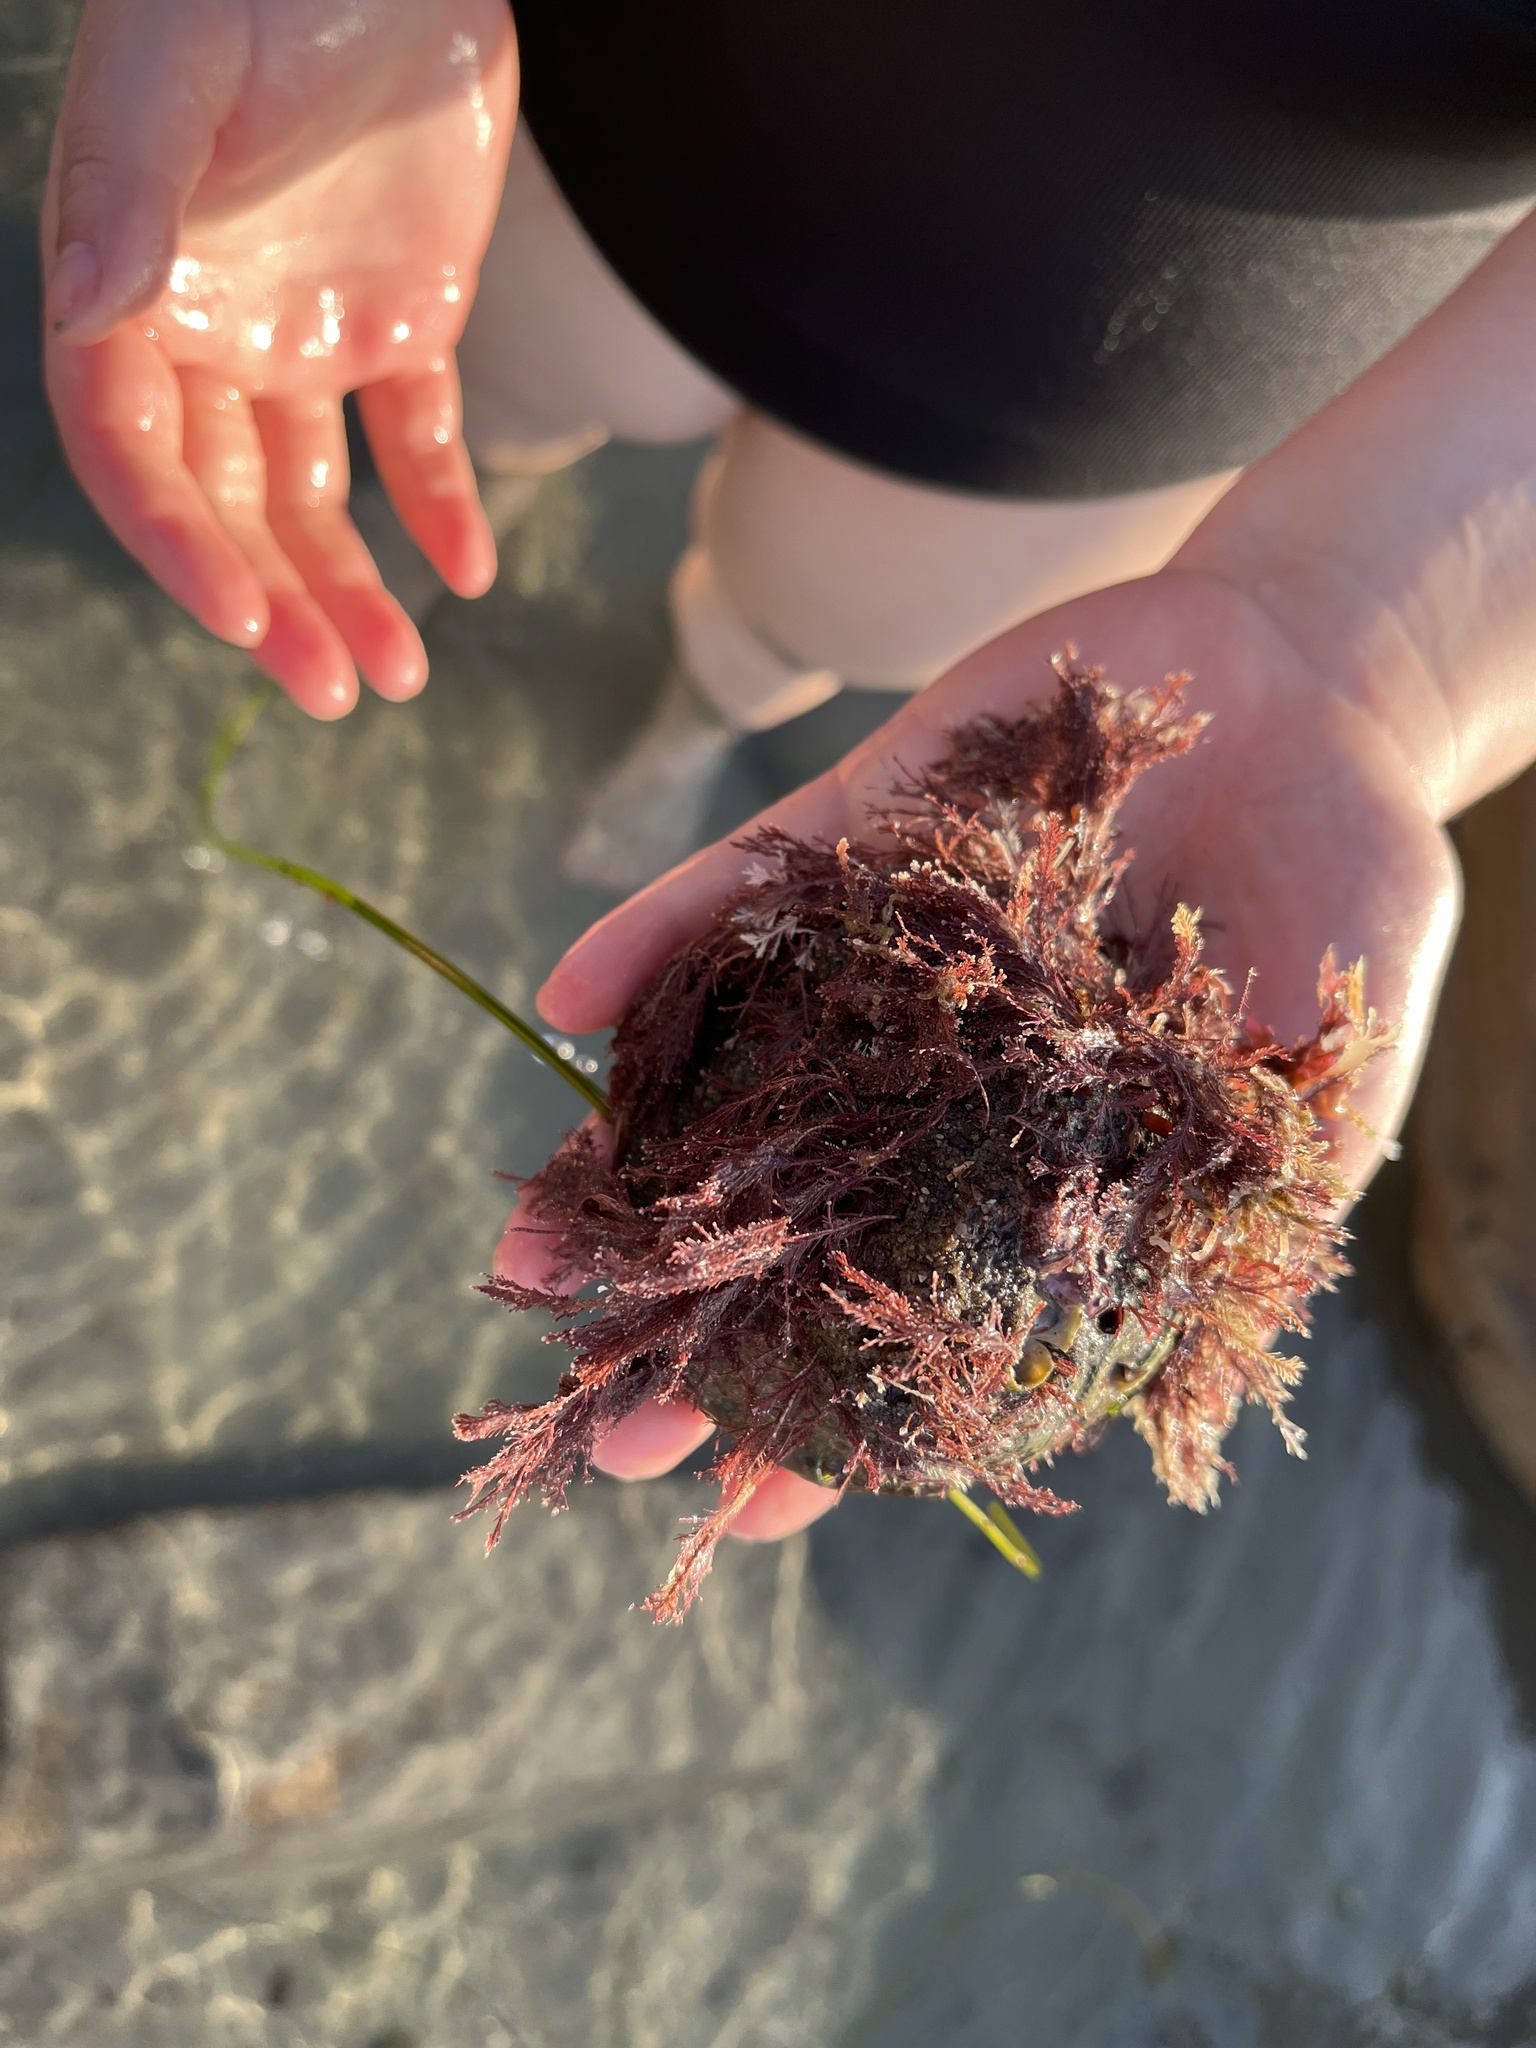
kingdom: Animalia
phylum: Mollusca
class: Gastropoda
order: Trochida
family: Turbinidae
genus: Megastraea
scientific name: Megastraea undosa
